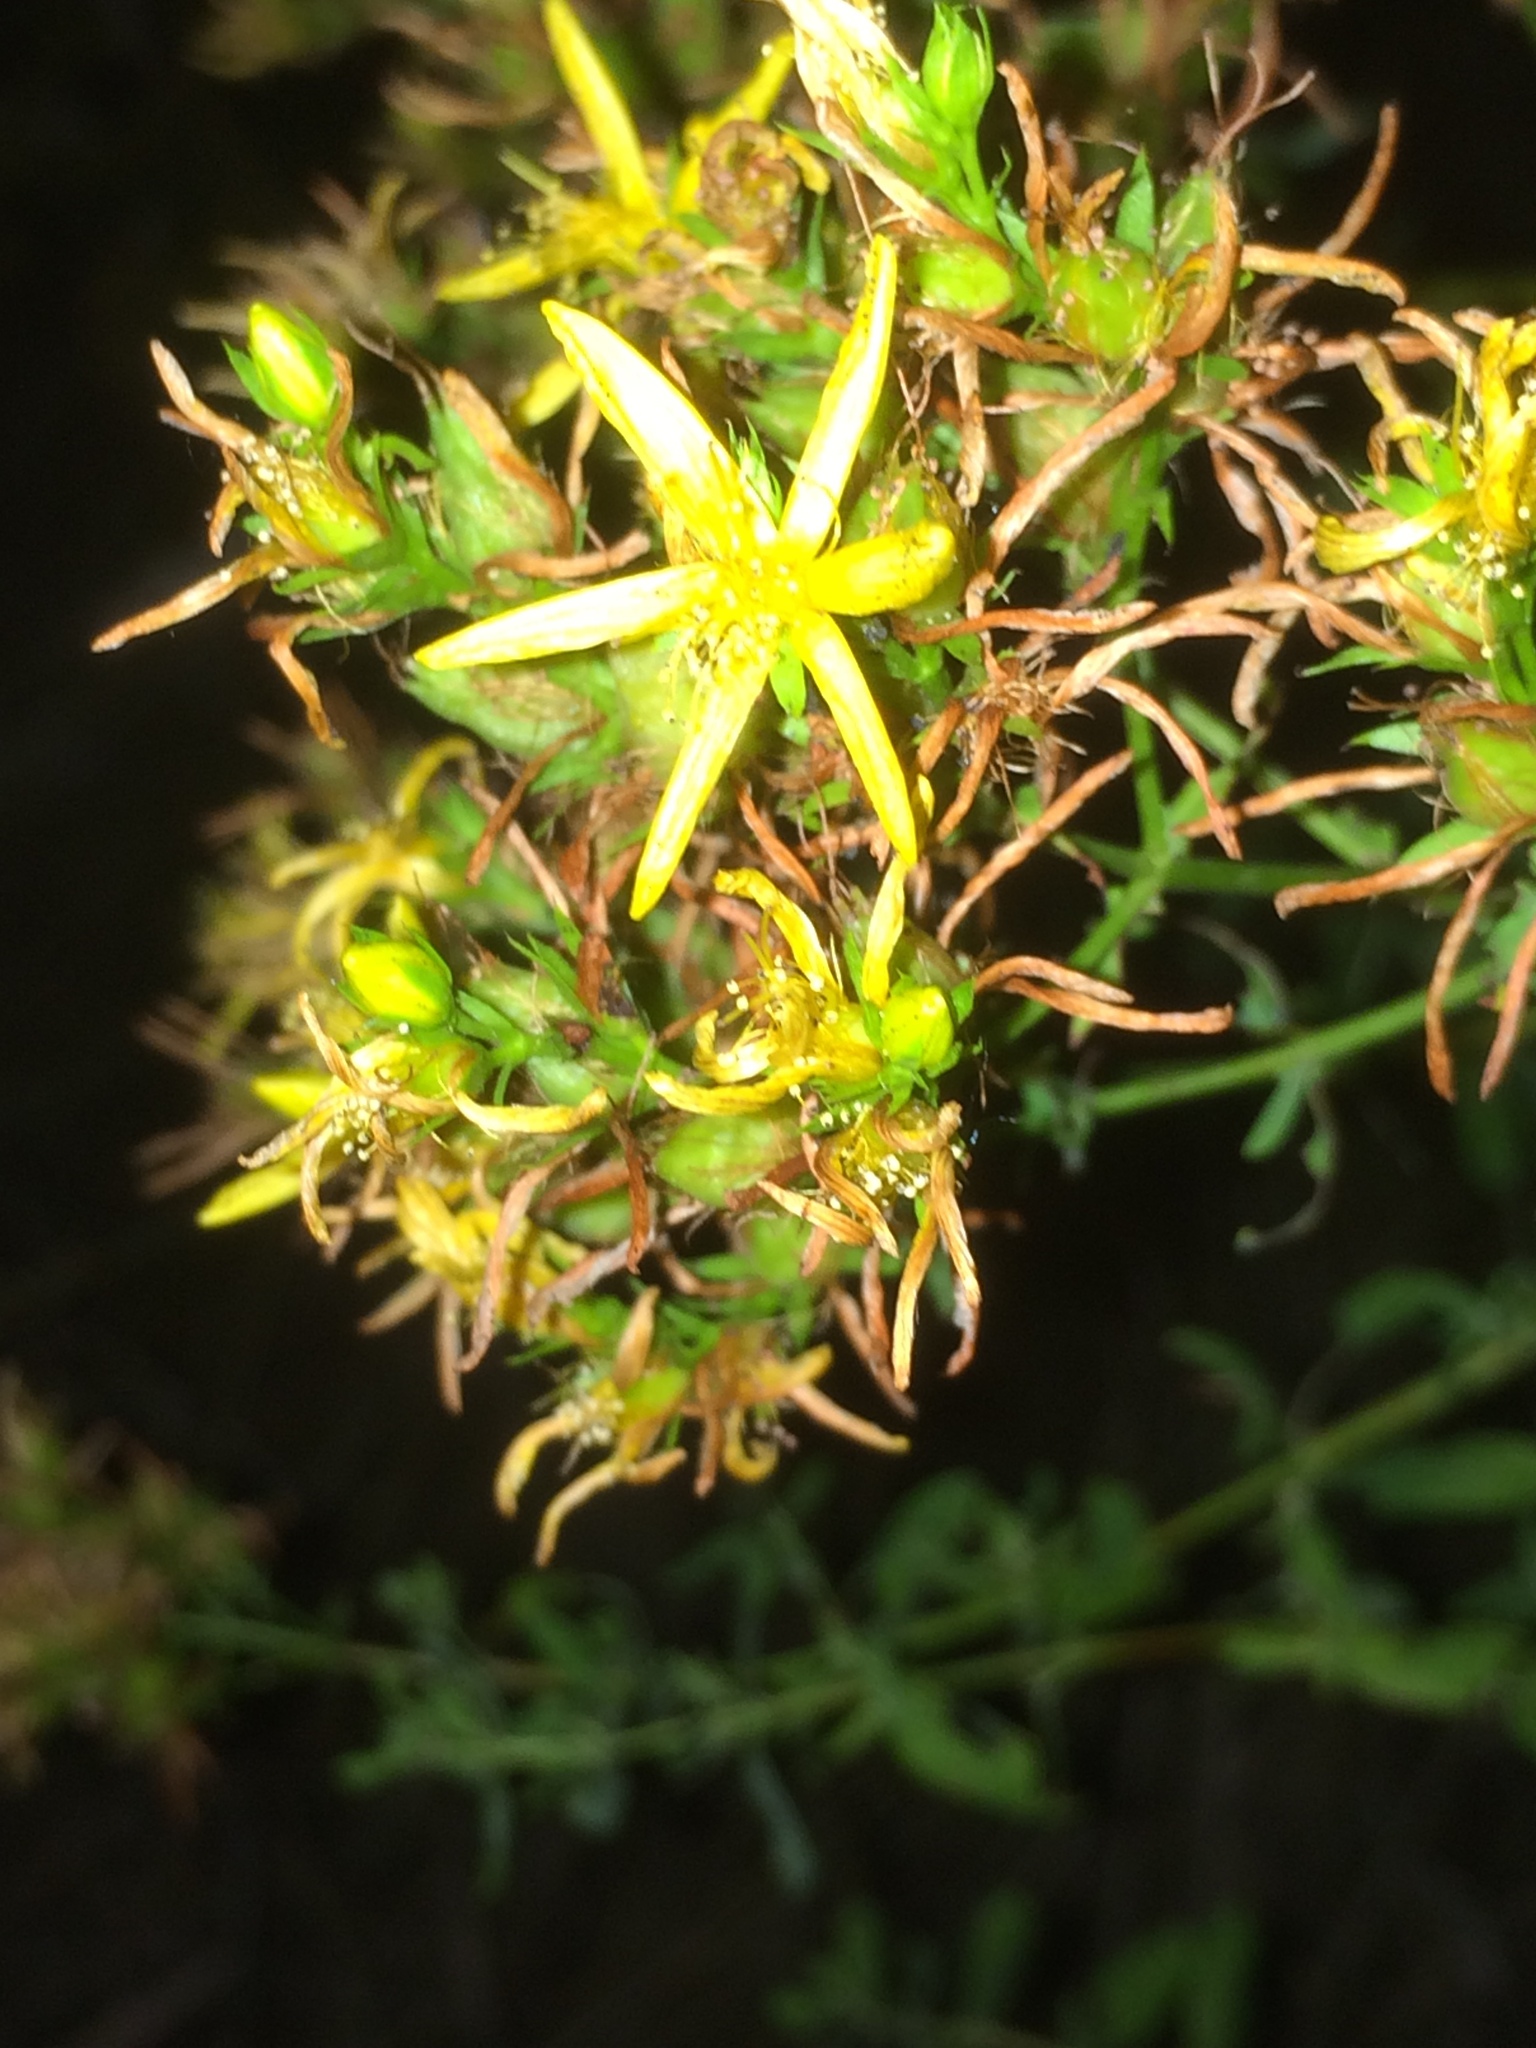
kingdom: Plantae
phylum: Tracheophyta
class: Magnoliopsida
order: Malpighiales
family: Hypericaceae
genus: Hypericum
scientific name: Hypericum perforatum
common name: Common st. johnswort
